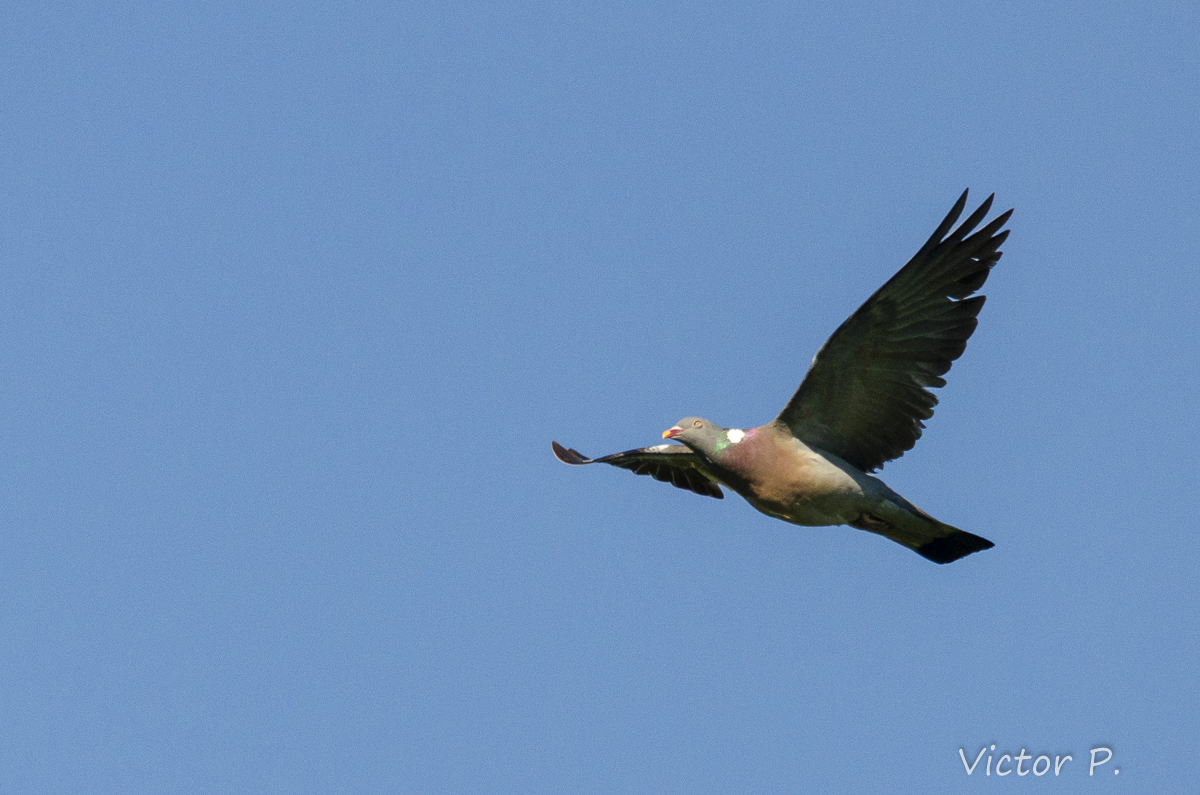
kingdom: Animalia
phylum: Chordata
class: Aves
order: Columbiformes
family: Columbidae
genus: Columba
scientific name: Columba palumbus
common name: Common wood pigeon
